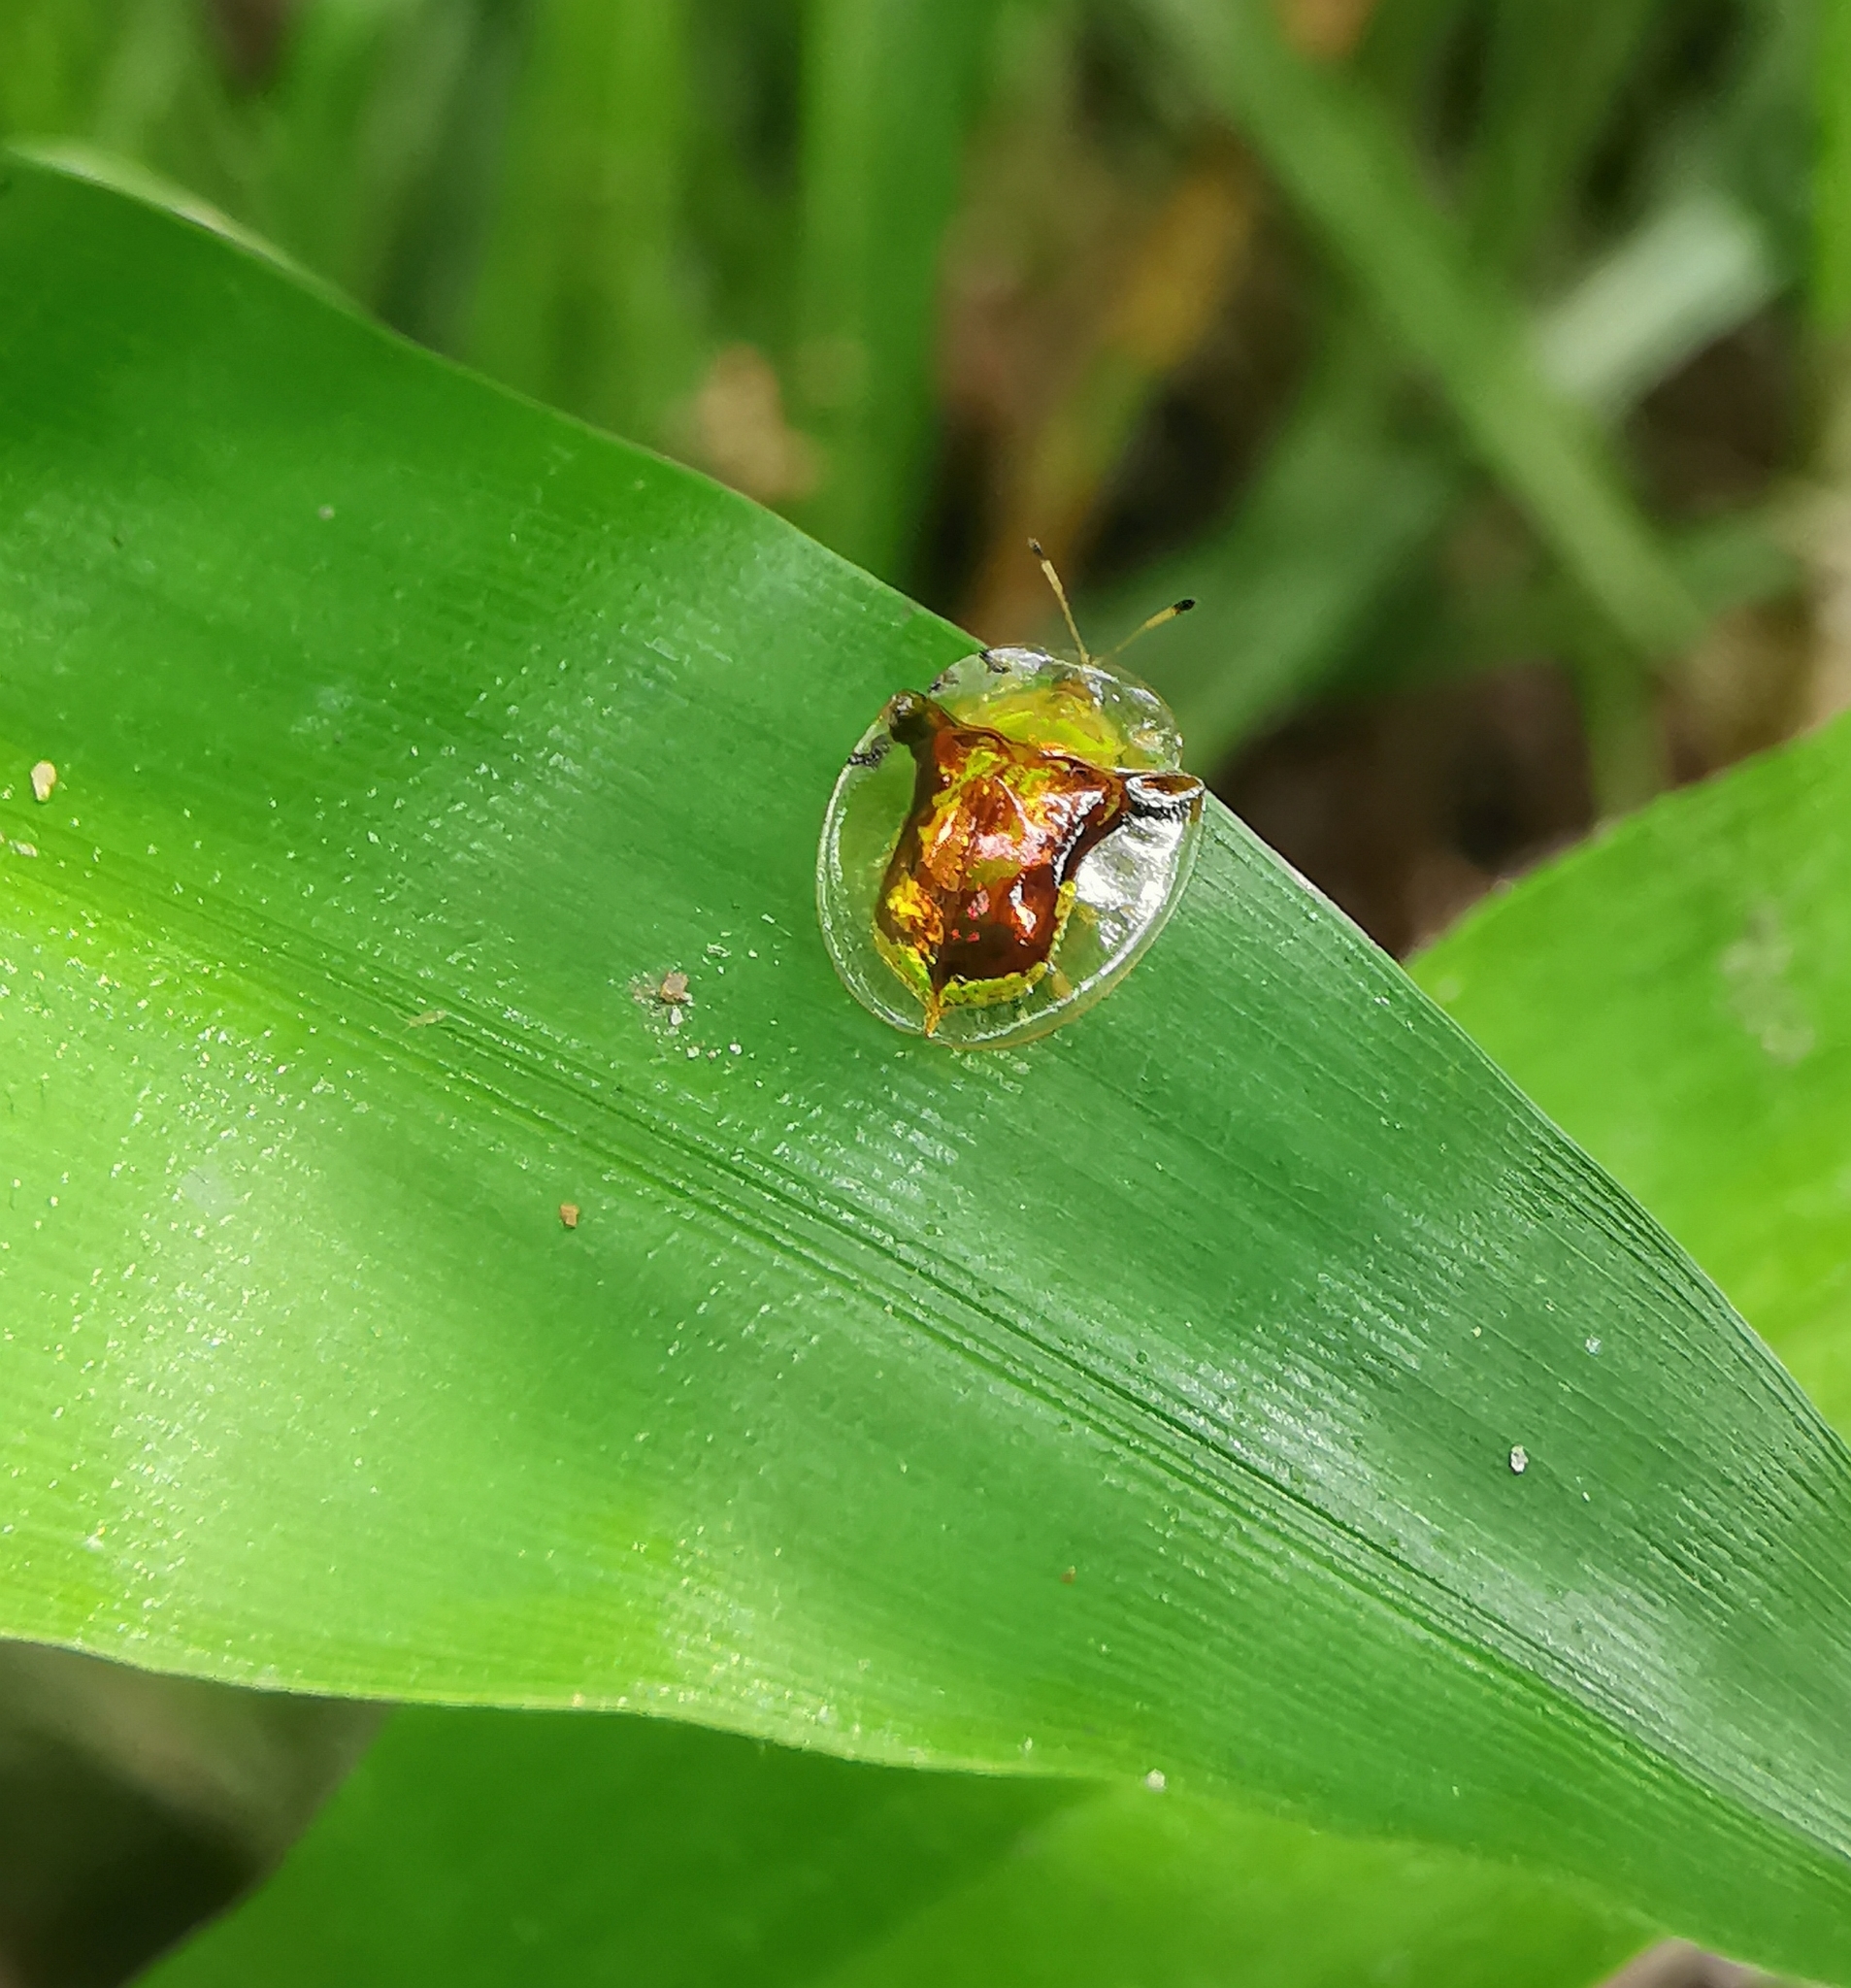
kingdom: Animalia
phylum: Arthropoda
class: Insecta
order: Coleoptera
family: Chrysomelidae
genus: Aspidimorpha
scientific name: Aspidimorpha furcata
